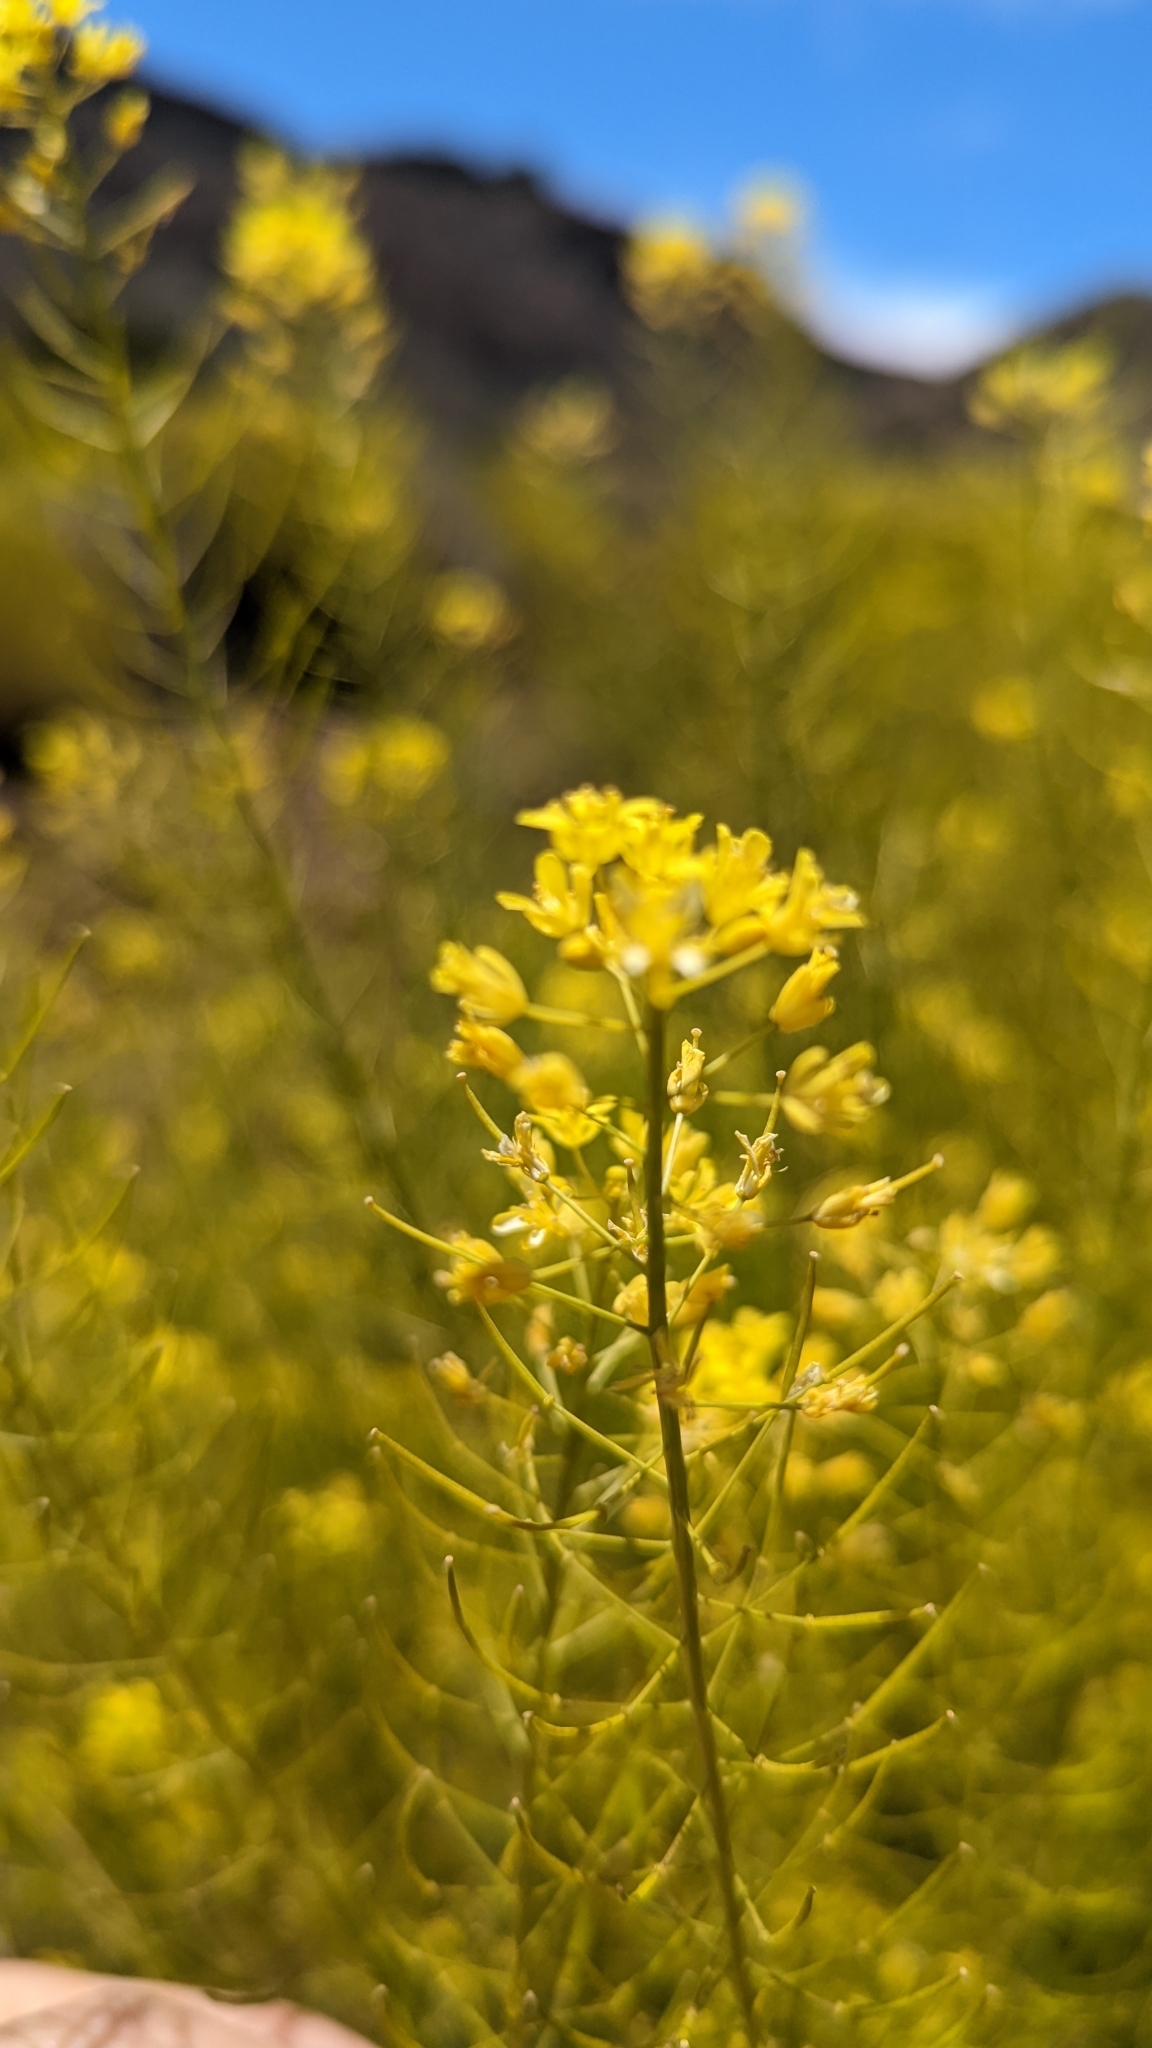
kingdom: Plantae
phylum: Tracheophyta
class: Magnoliopsida
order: Brassicales
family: Brassicaceae
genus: Descurainia
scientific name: Descurainia bourgaeana
